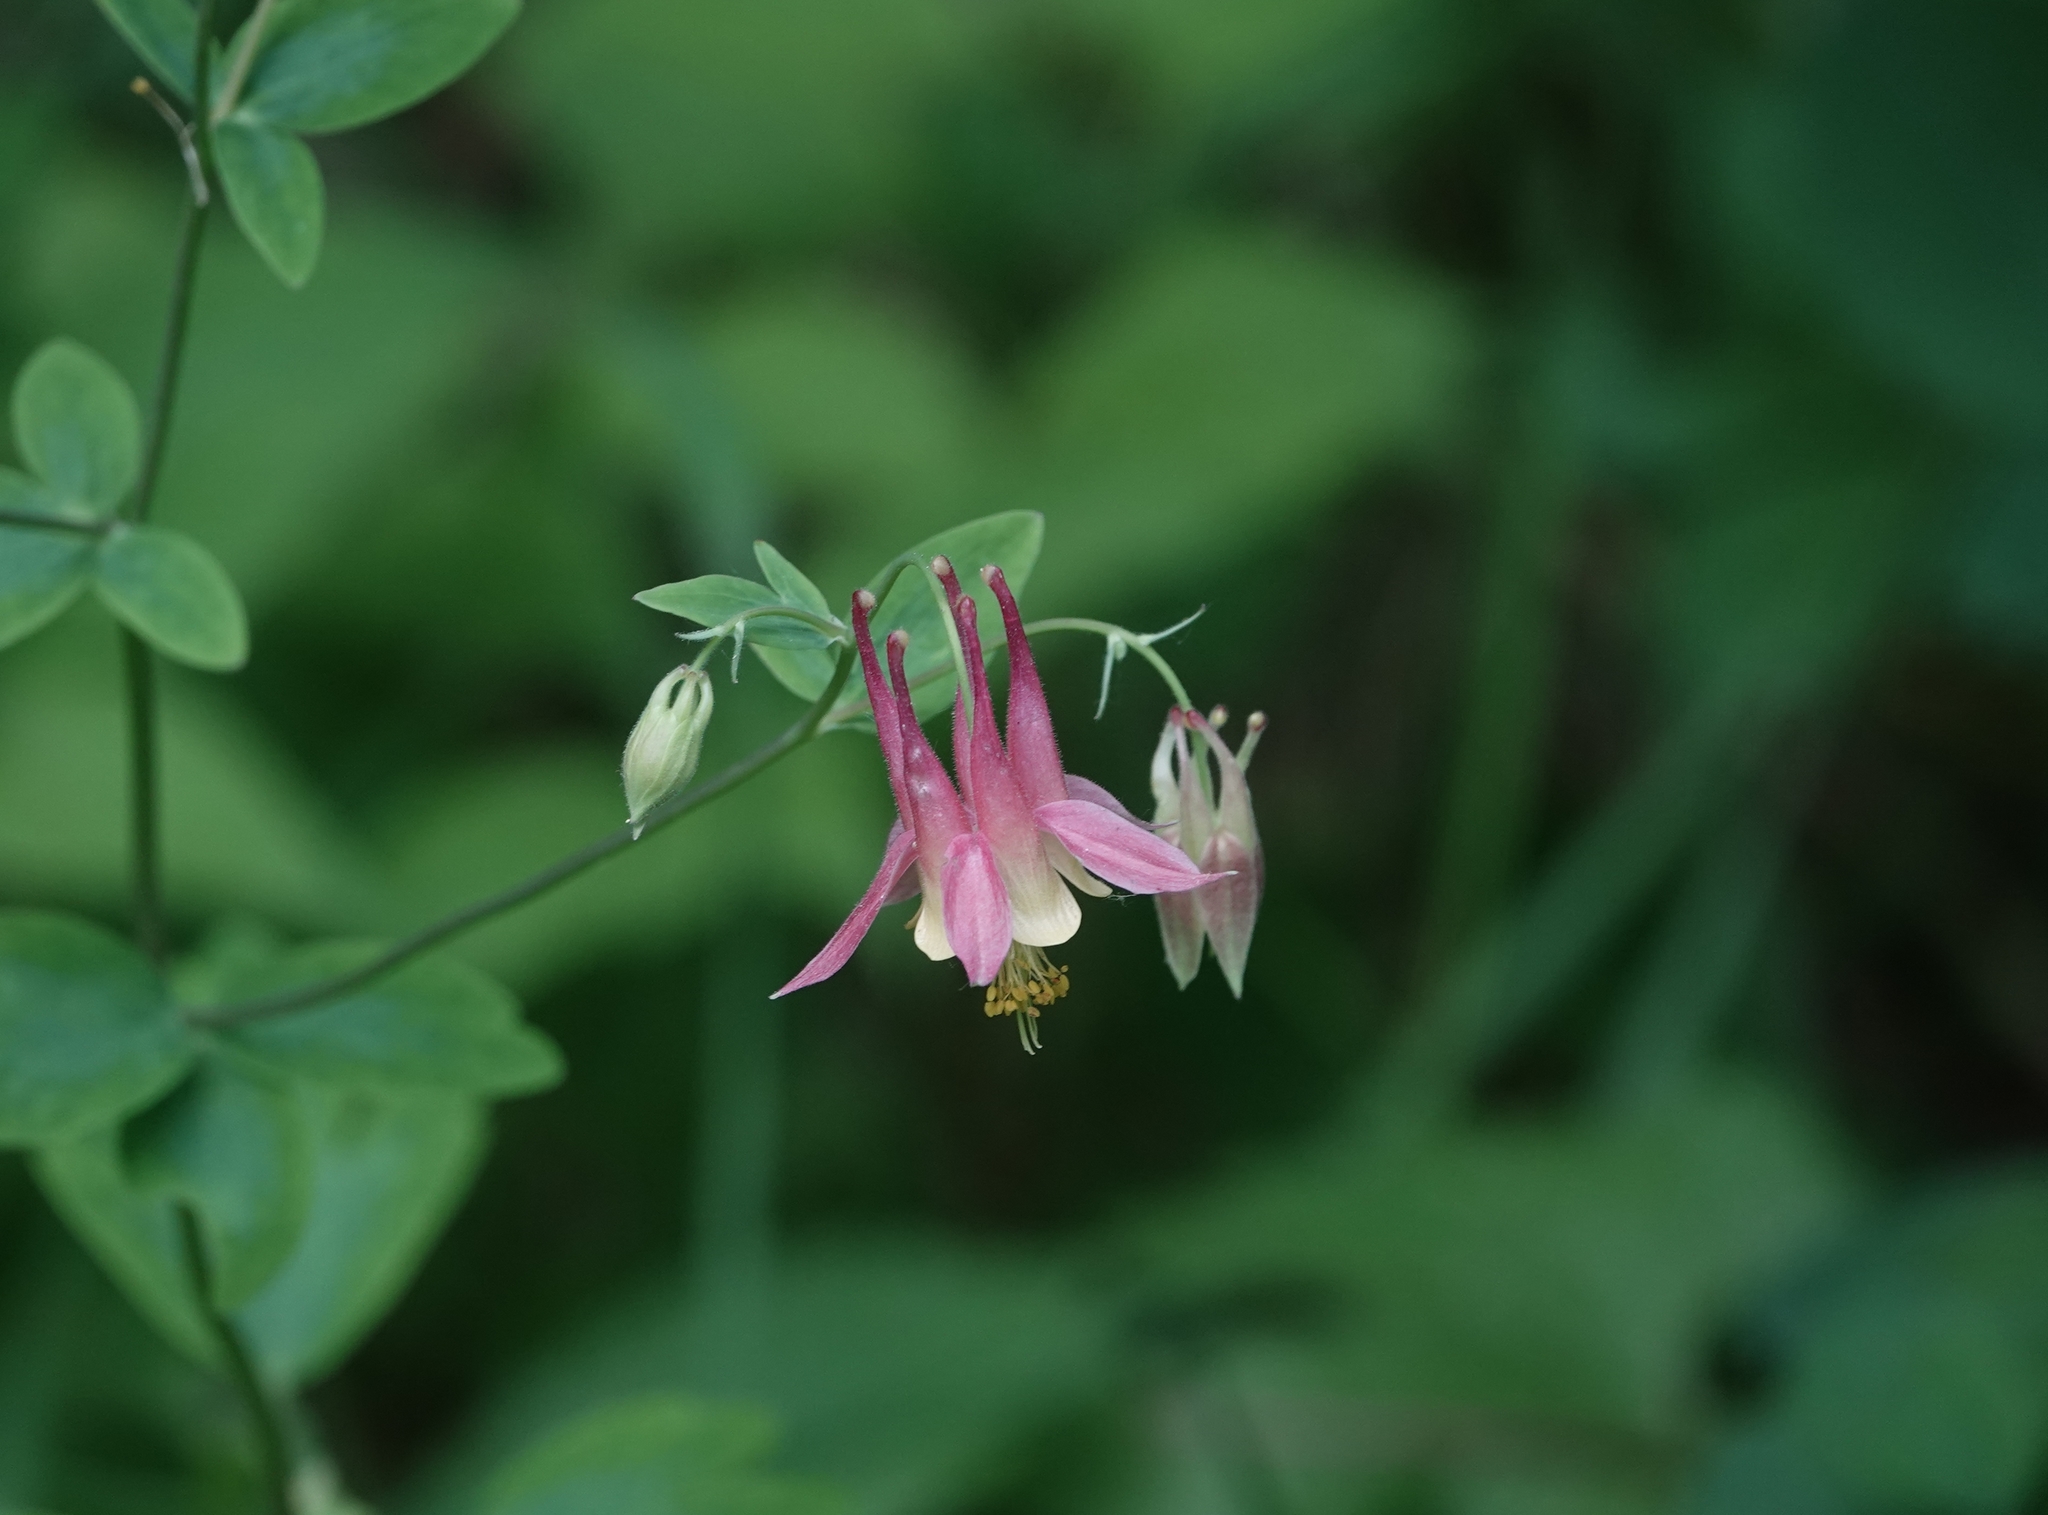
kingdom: Plantae
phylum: Tracheophyta
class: Magnoliopsida
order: Ranunculales
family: Ranunculaceae
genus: Aquilegia
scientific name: Aquilegia canadensis
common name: American columbine
